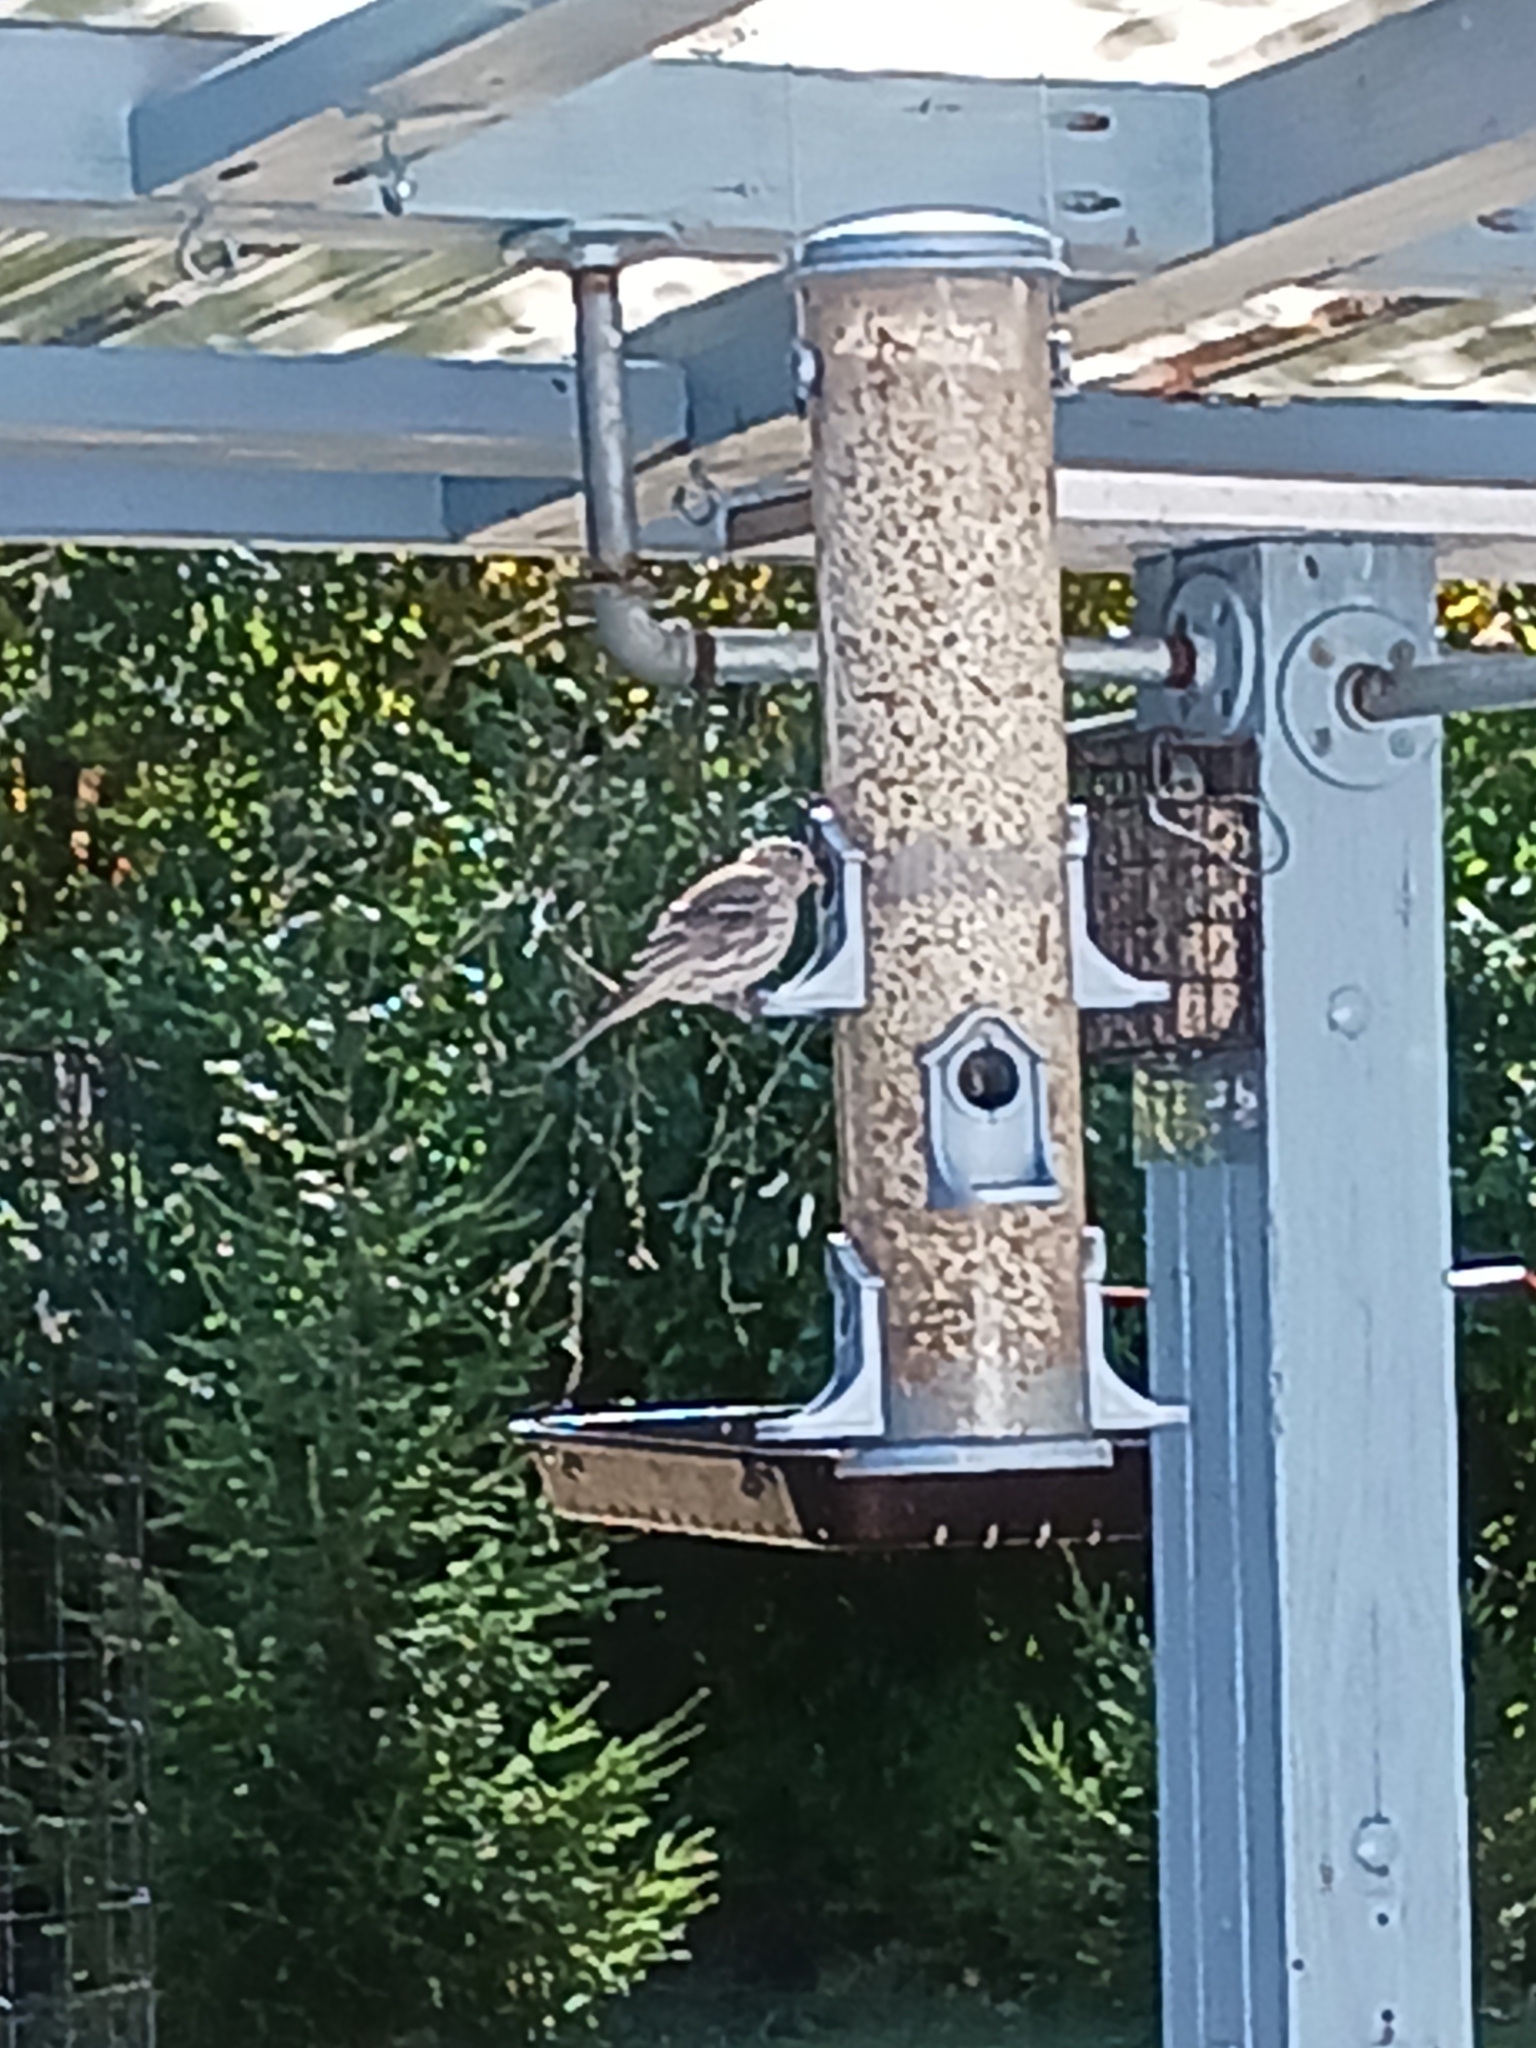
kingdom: Animalia
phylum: Chordata
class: Aves
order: Passeriformes
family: Fringillidae
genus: Haemorhous
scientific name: Haemorhous mexicanus
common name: House finch
